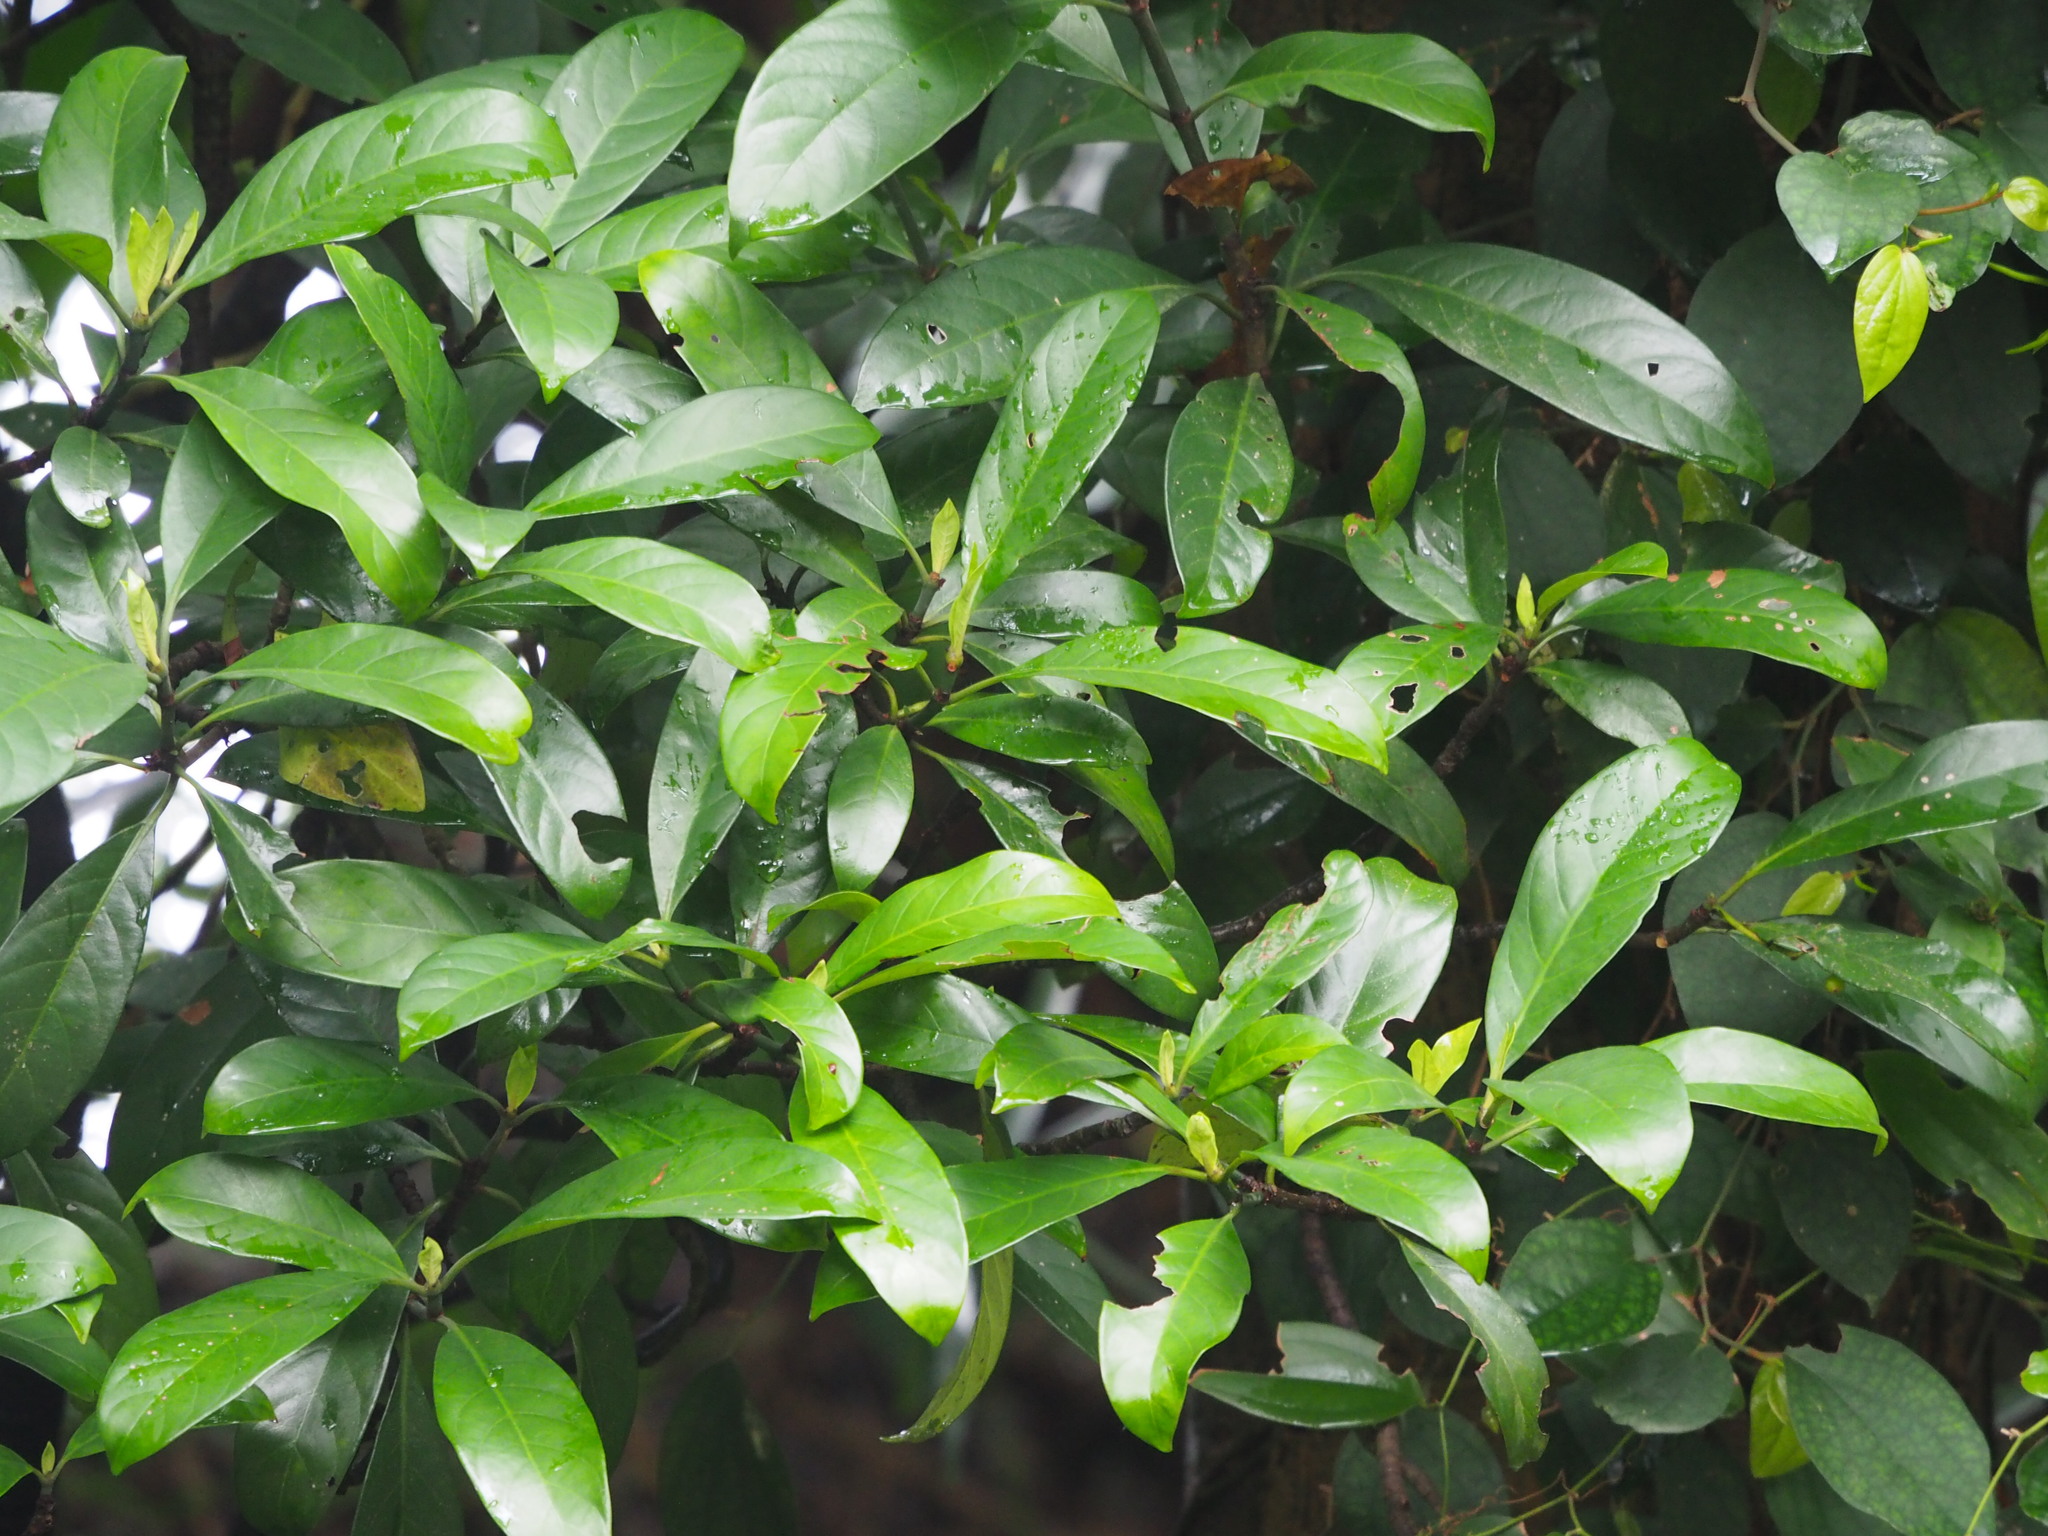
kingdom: Plantae
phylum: Tracheophyta
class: Magnoliopsida
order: Gentianales
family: Rubiaceae
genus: Psychotria
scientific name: Psychotria asiatica
